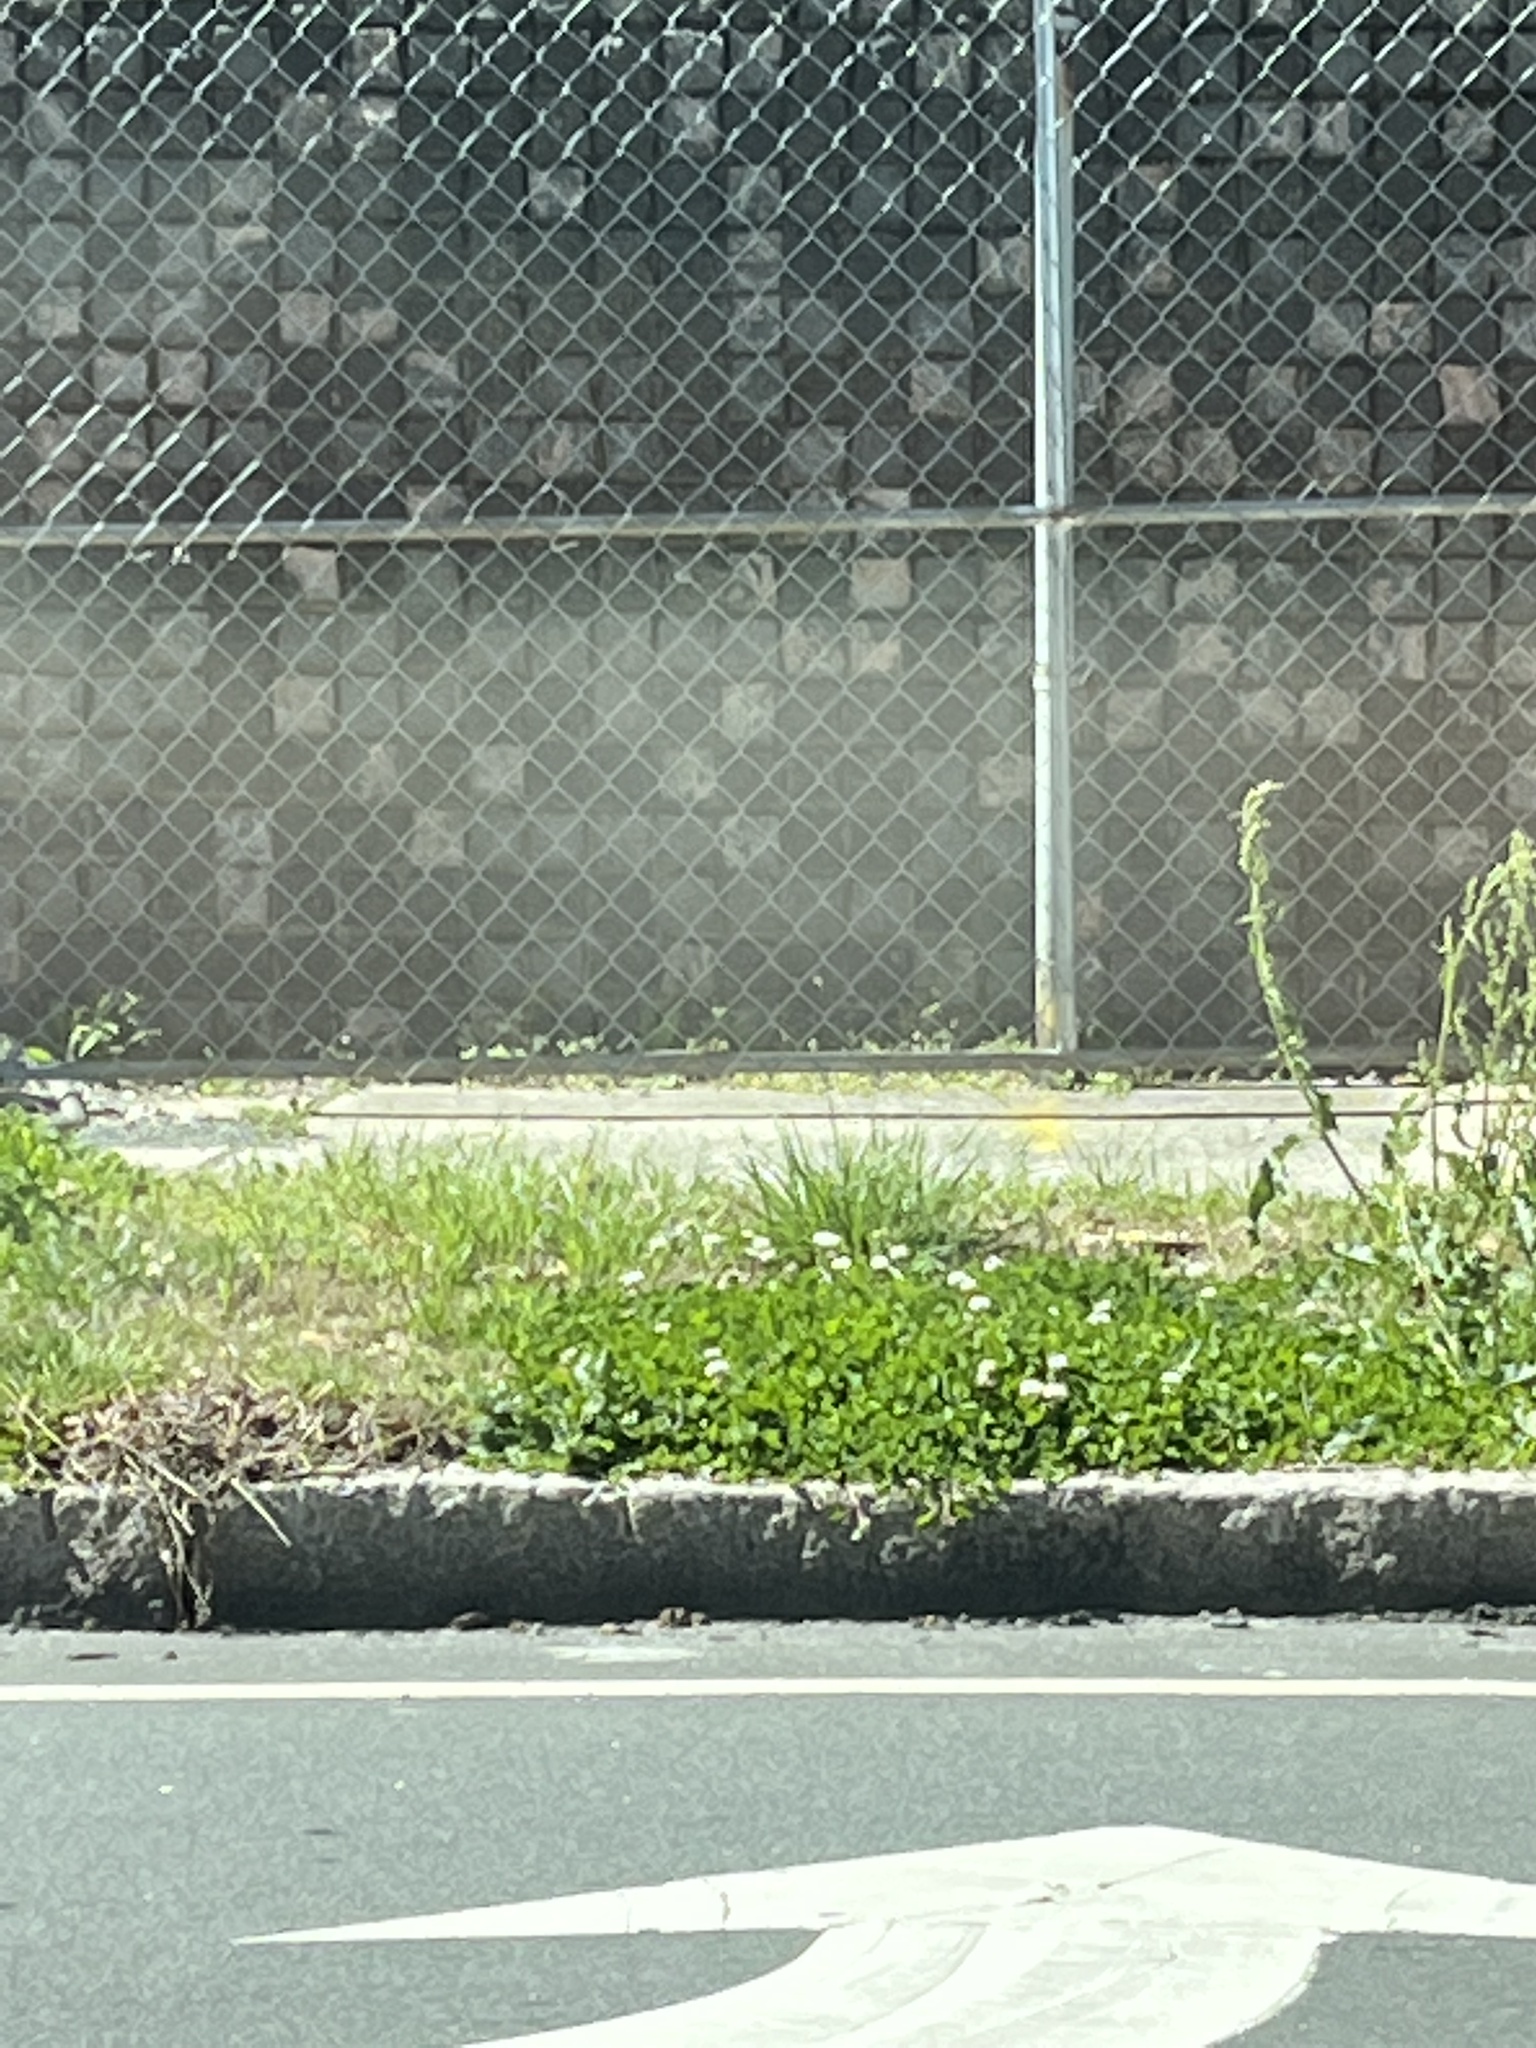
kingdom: Plantae
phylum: Tracheophyta
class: Magnoliopsida
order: Fabales
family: Fabaceae
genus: Trifolium
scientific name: Trifolium repens
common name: White clover
